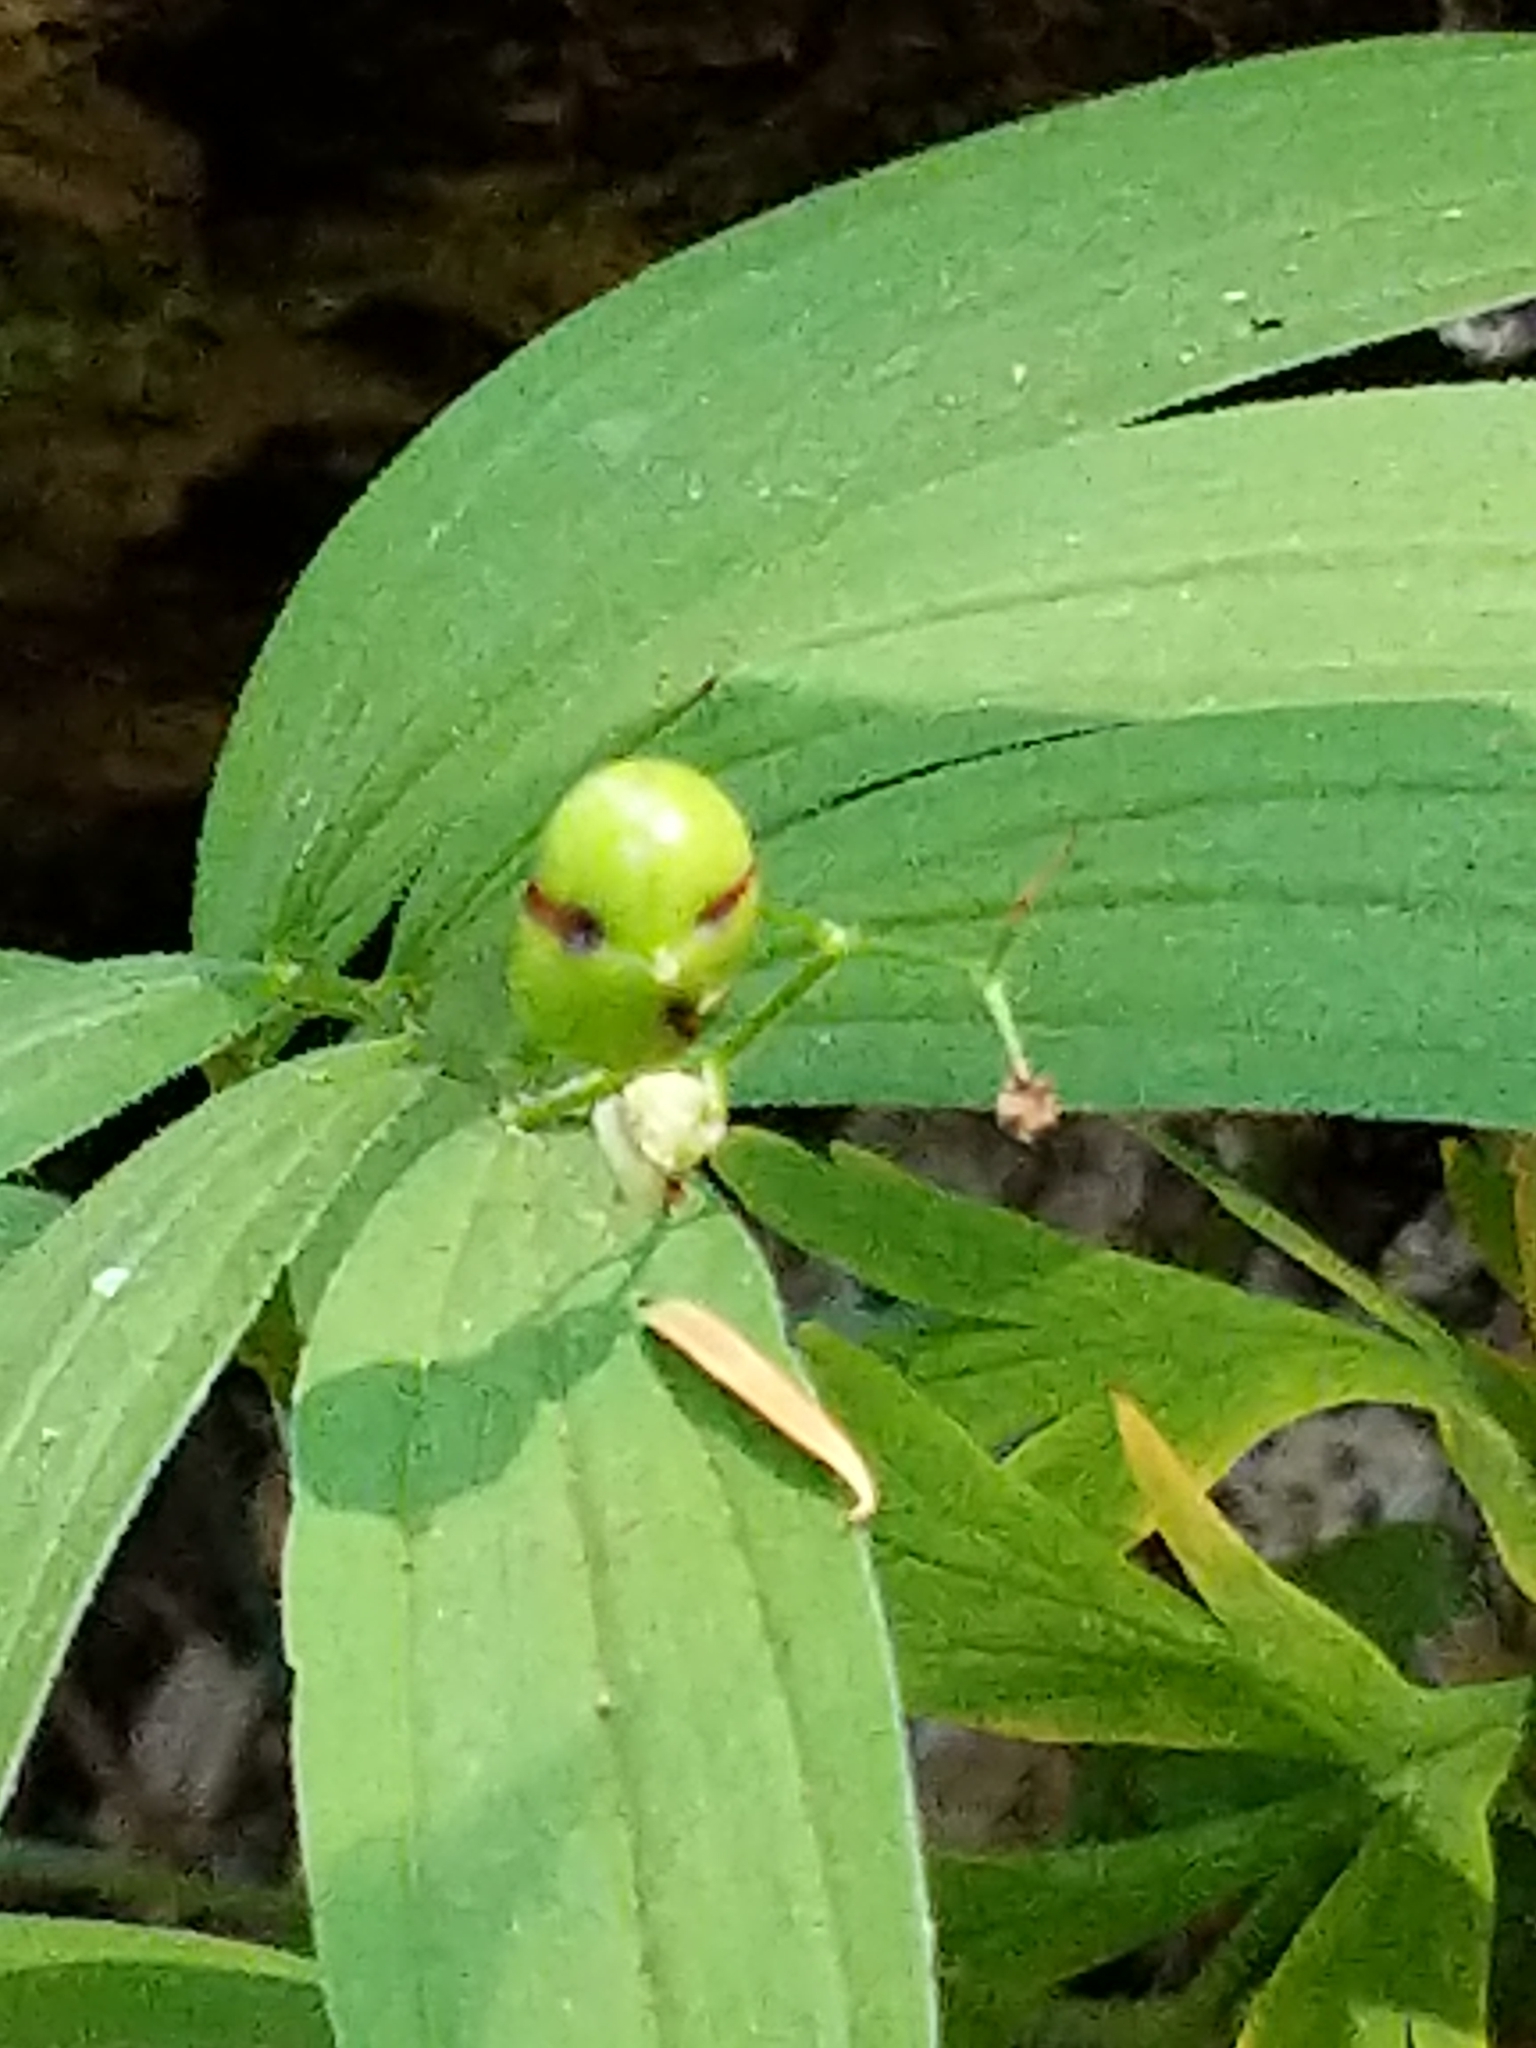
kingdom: Plantae
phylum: Tracheophyta
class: Liliopsida
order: Asparagales
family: Asparagaceae
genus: Maianthemum
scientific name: Maianthemum stellatum
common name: Little false solomon's seal
